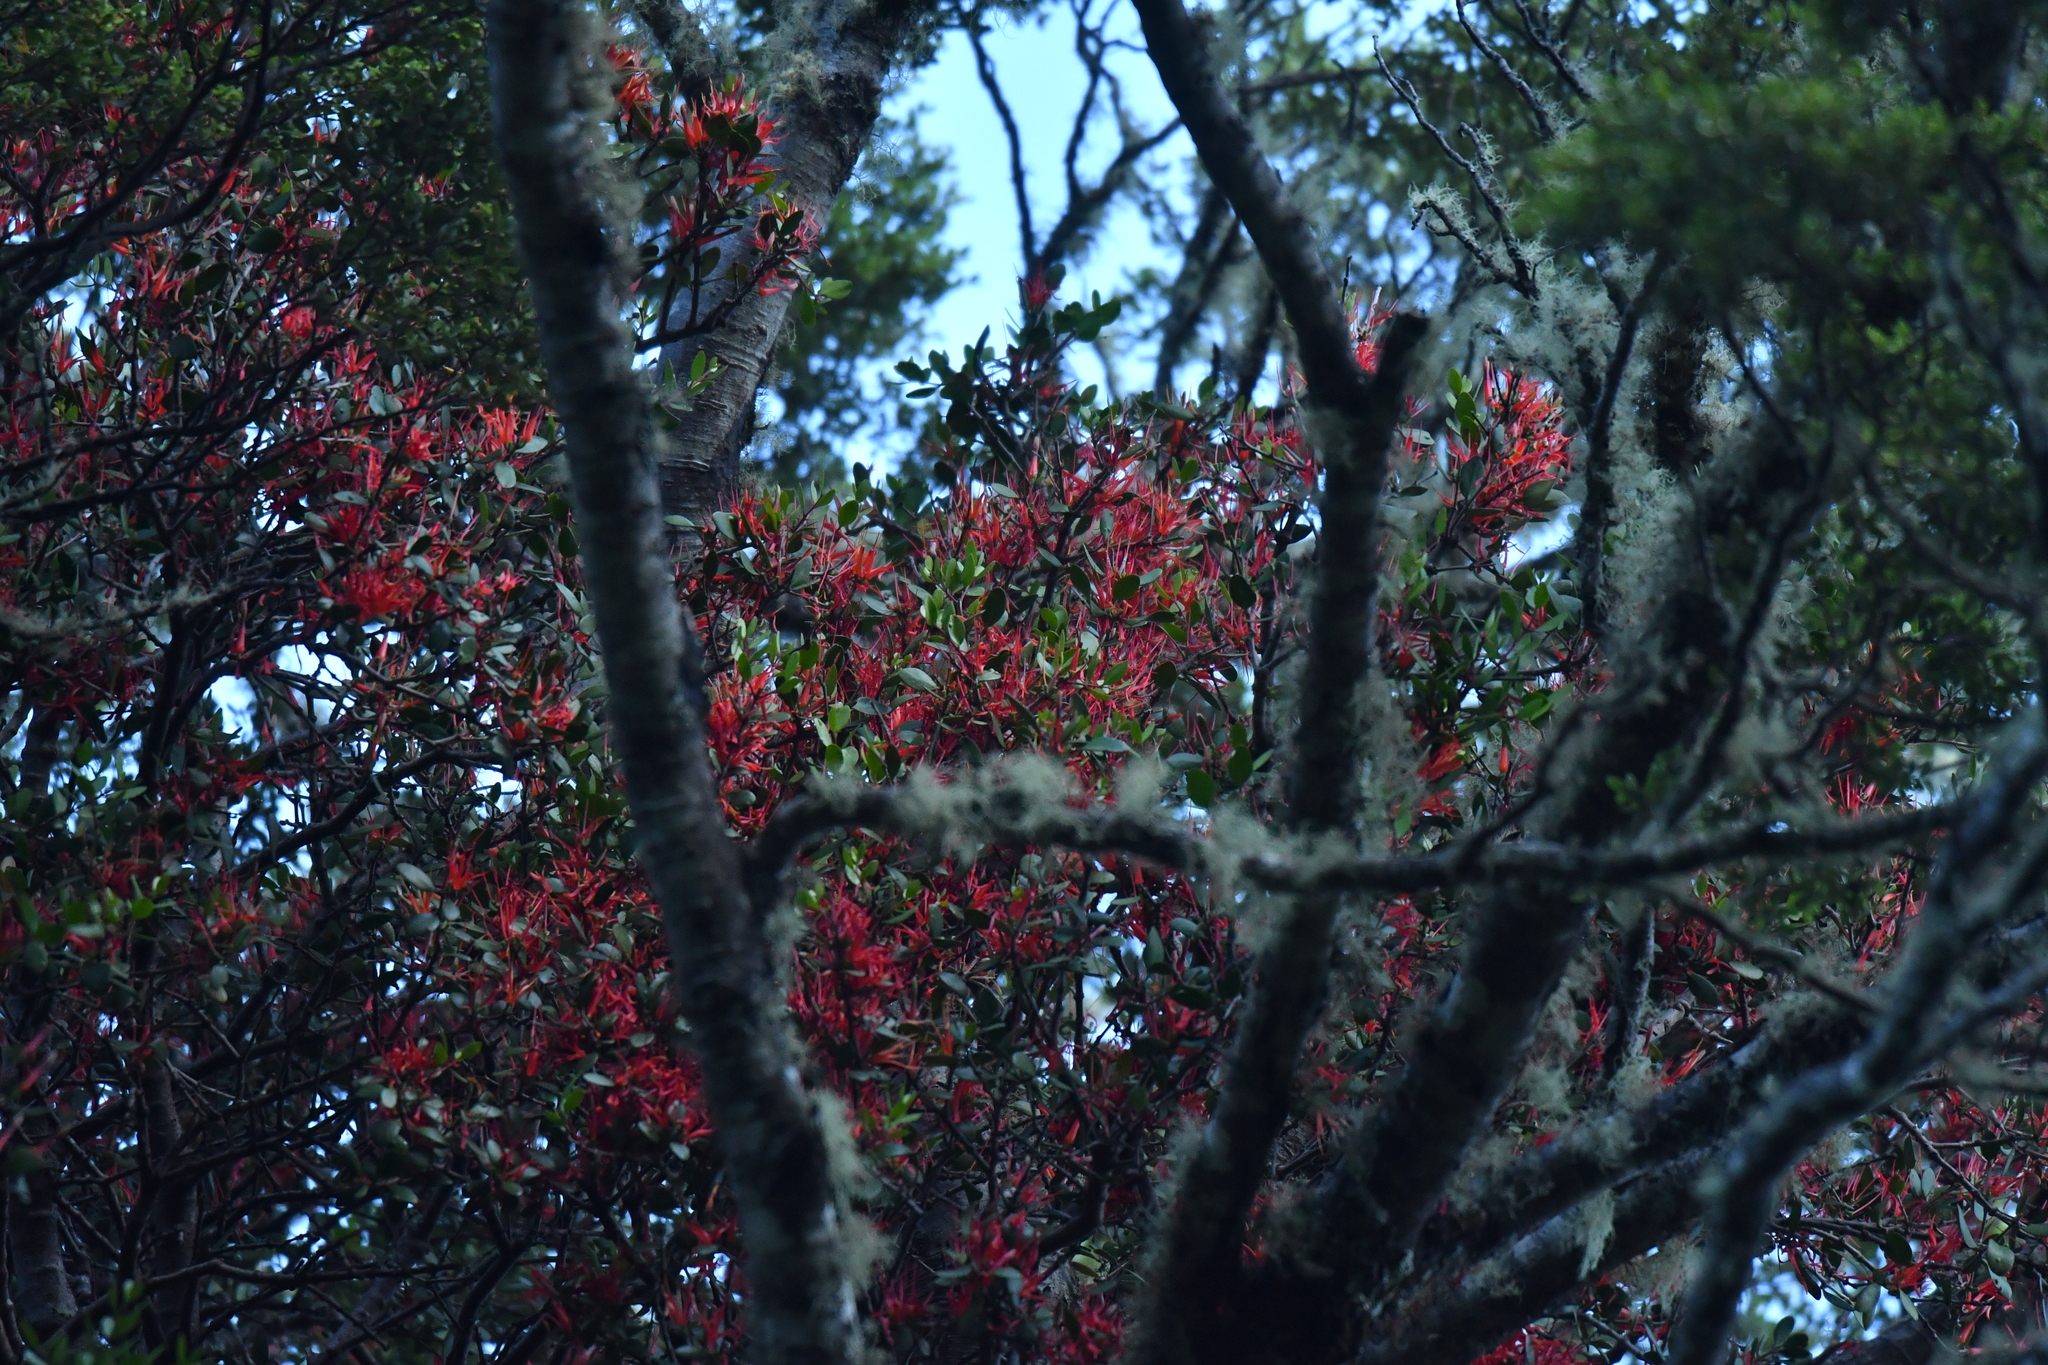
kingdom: Plantae
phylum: Tracheophyta
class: Magnoliopsida
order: Santalales
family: Loranthaceae
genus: Peraxilla
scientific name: Peraxilla tetrapetala
